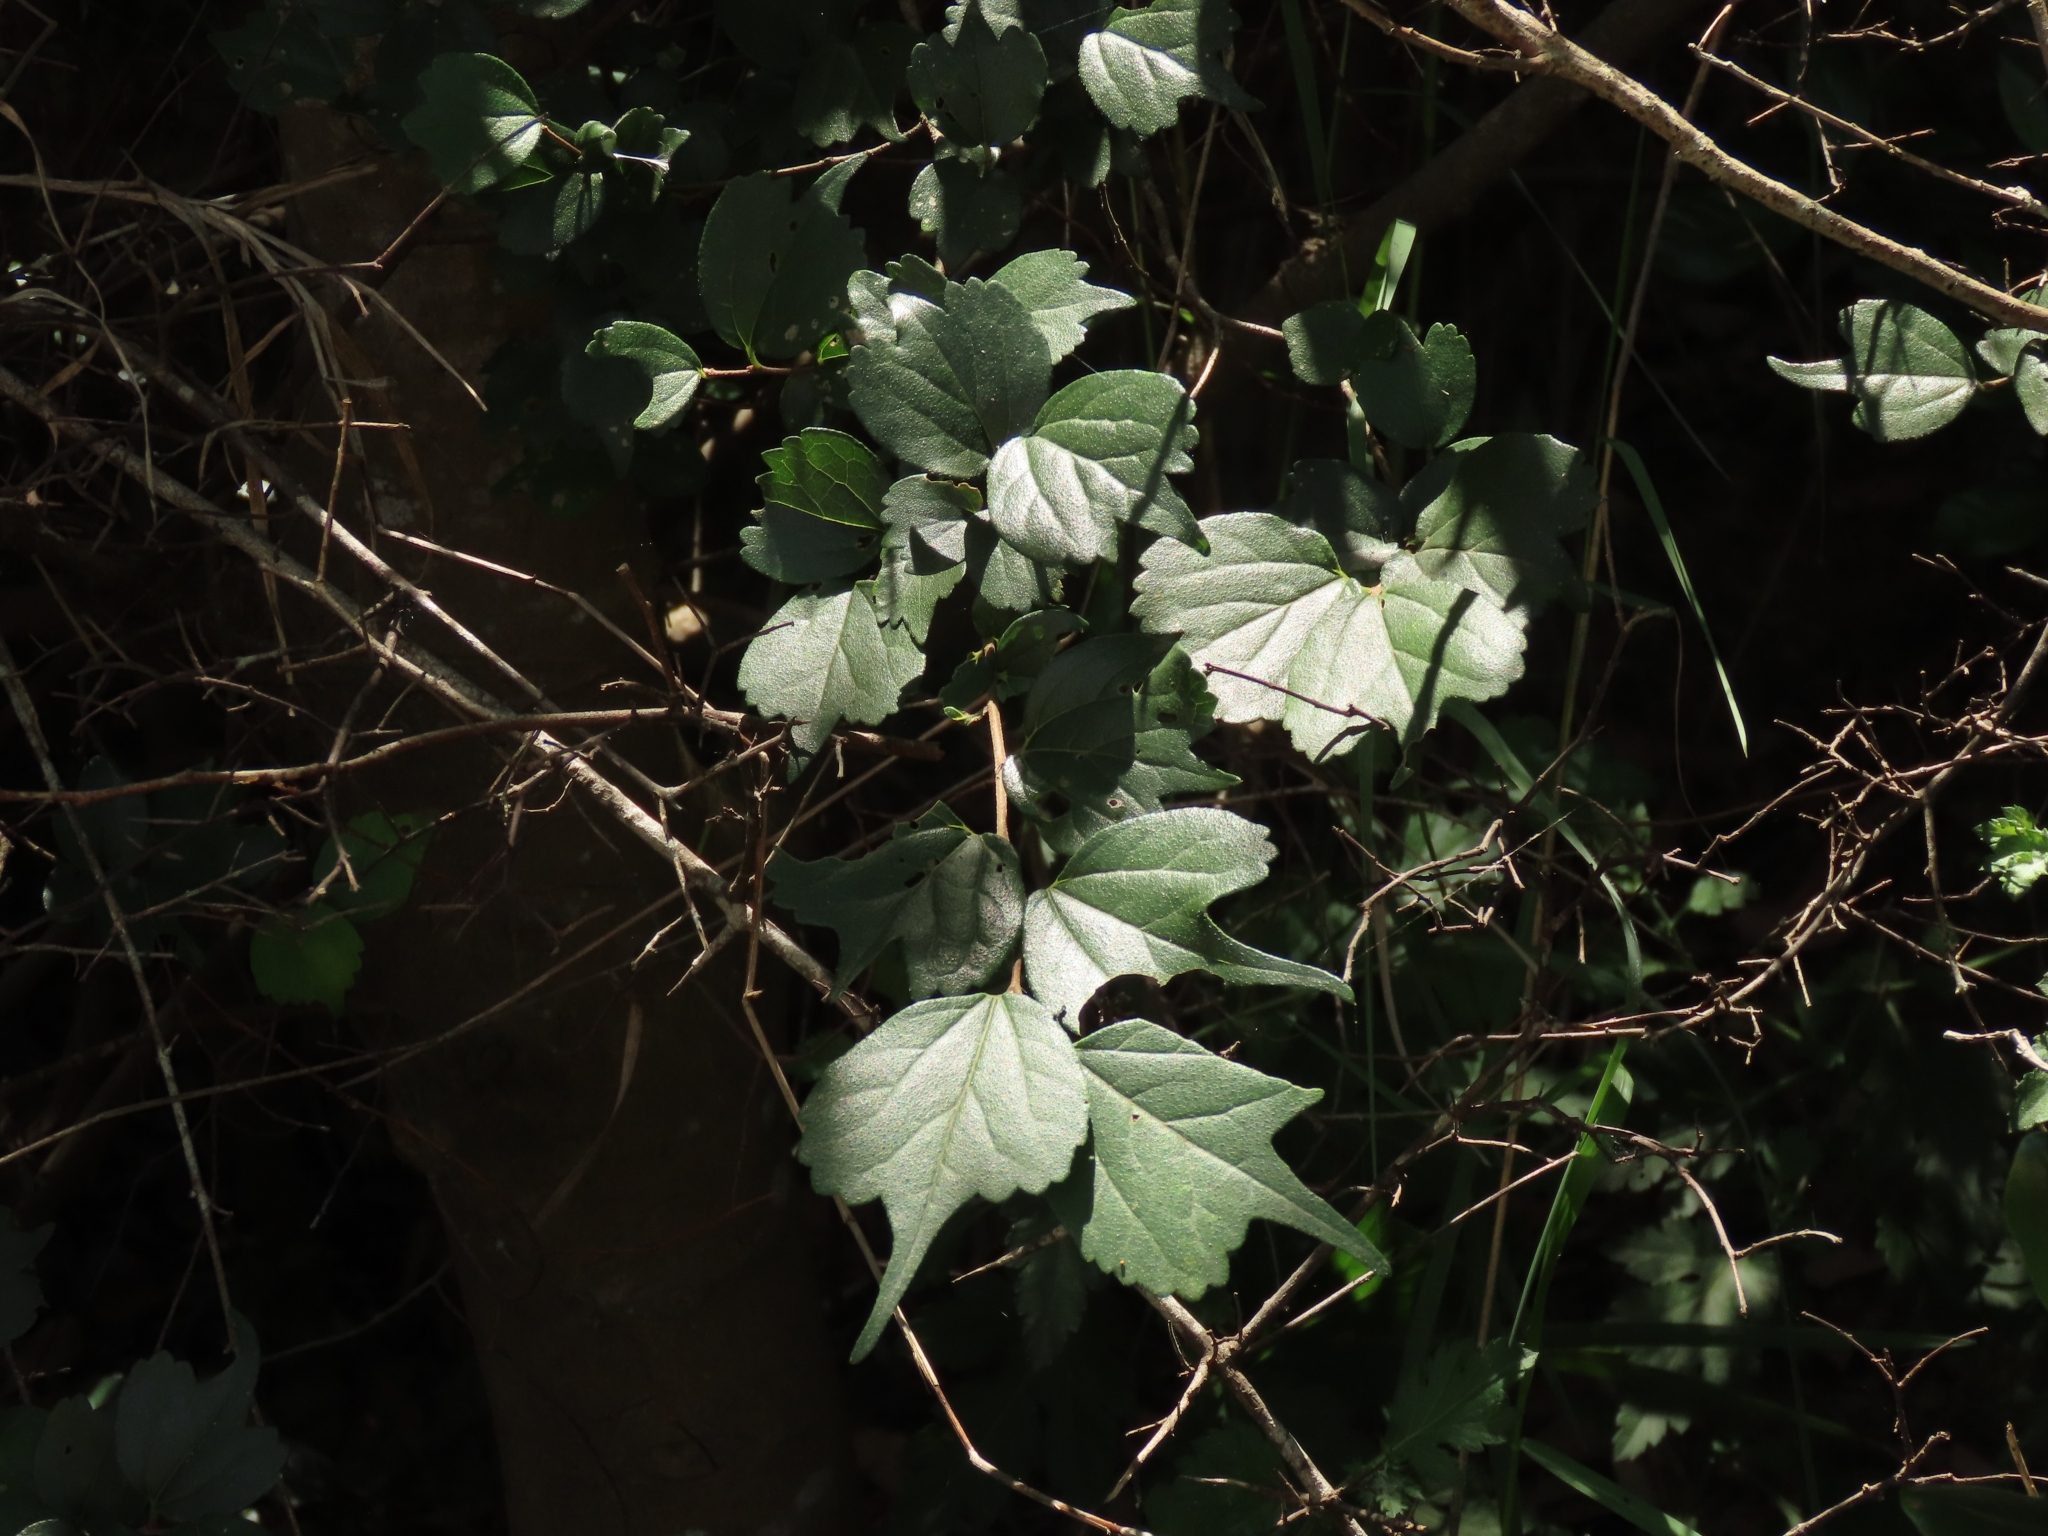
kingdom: Plantae
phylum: Tracheophyta
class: Magnoliopsida
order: Rosales
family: Cannabaceae
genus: Celtis
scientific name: Celtis biondii
